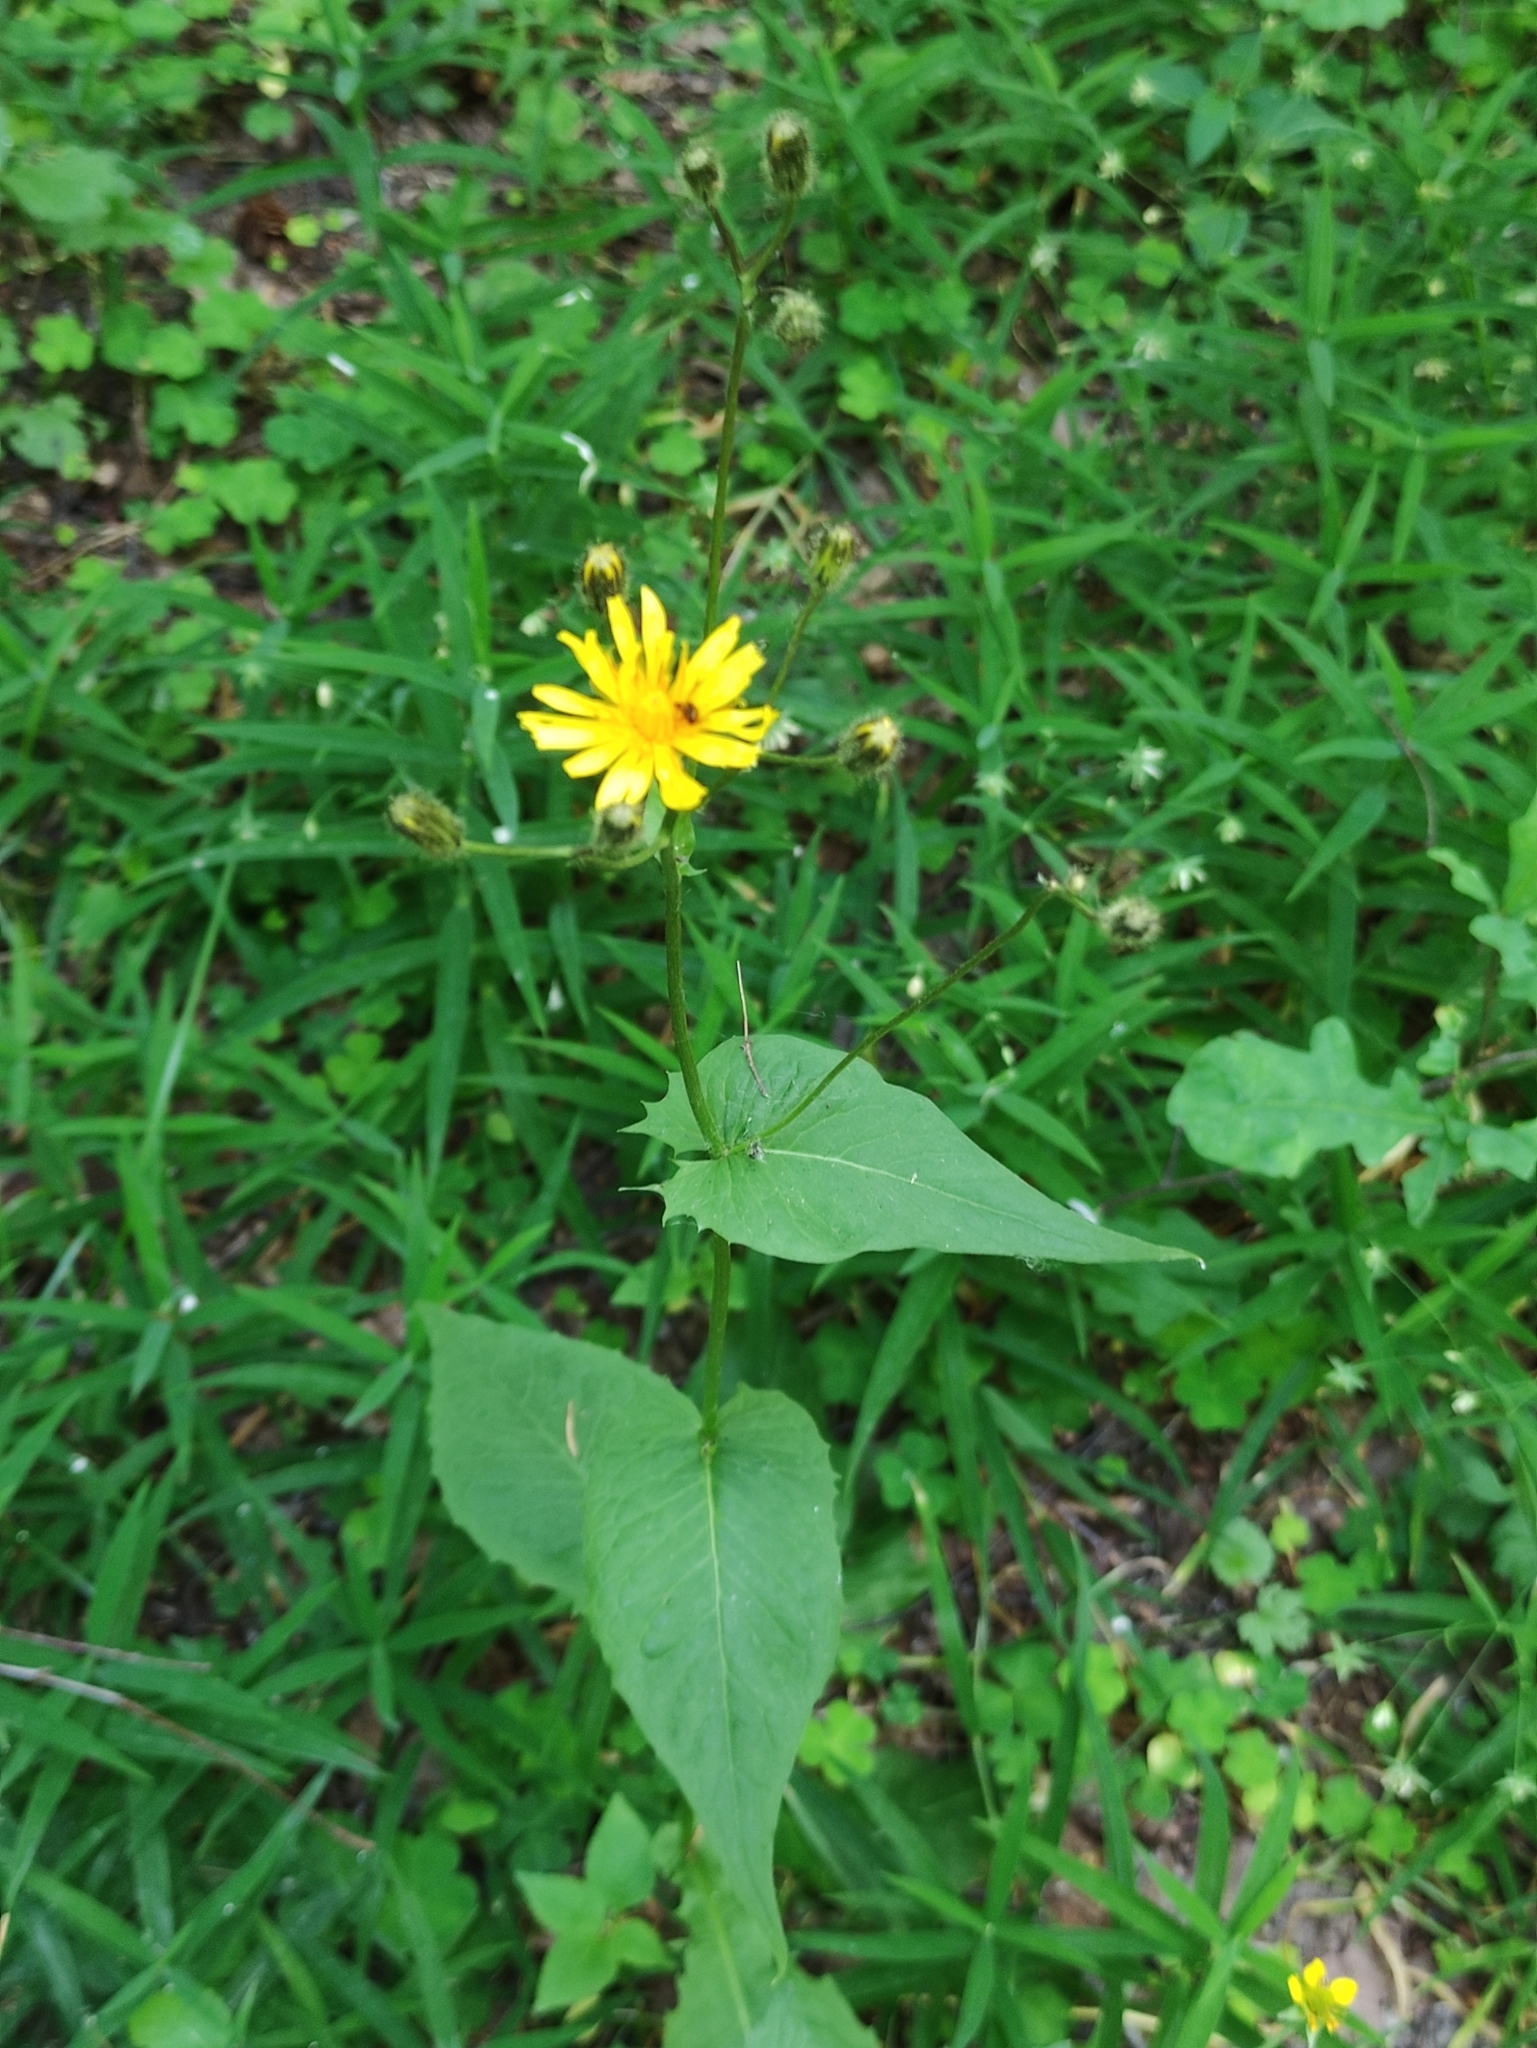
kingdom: Plantae
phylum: Tracheophyta
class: Magnoliopsida
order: Asterales
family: Asteraceae
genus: Crepis
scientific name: Crepis paludosa
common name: Marsh hawk's-beard
